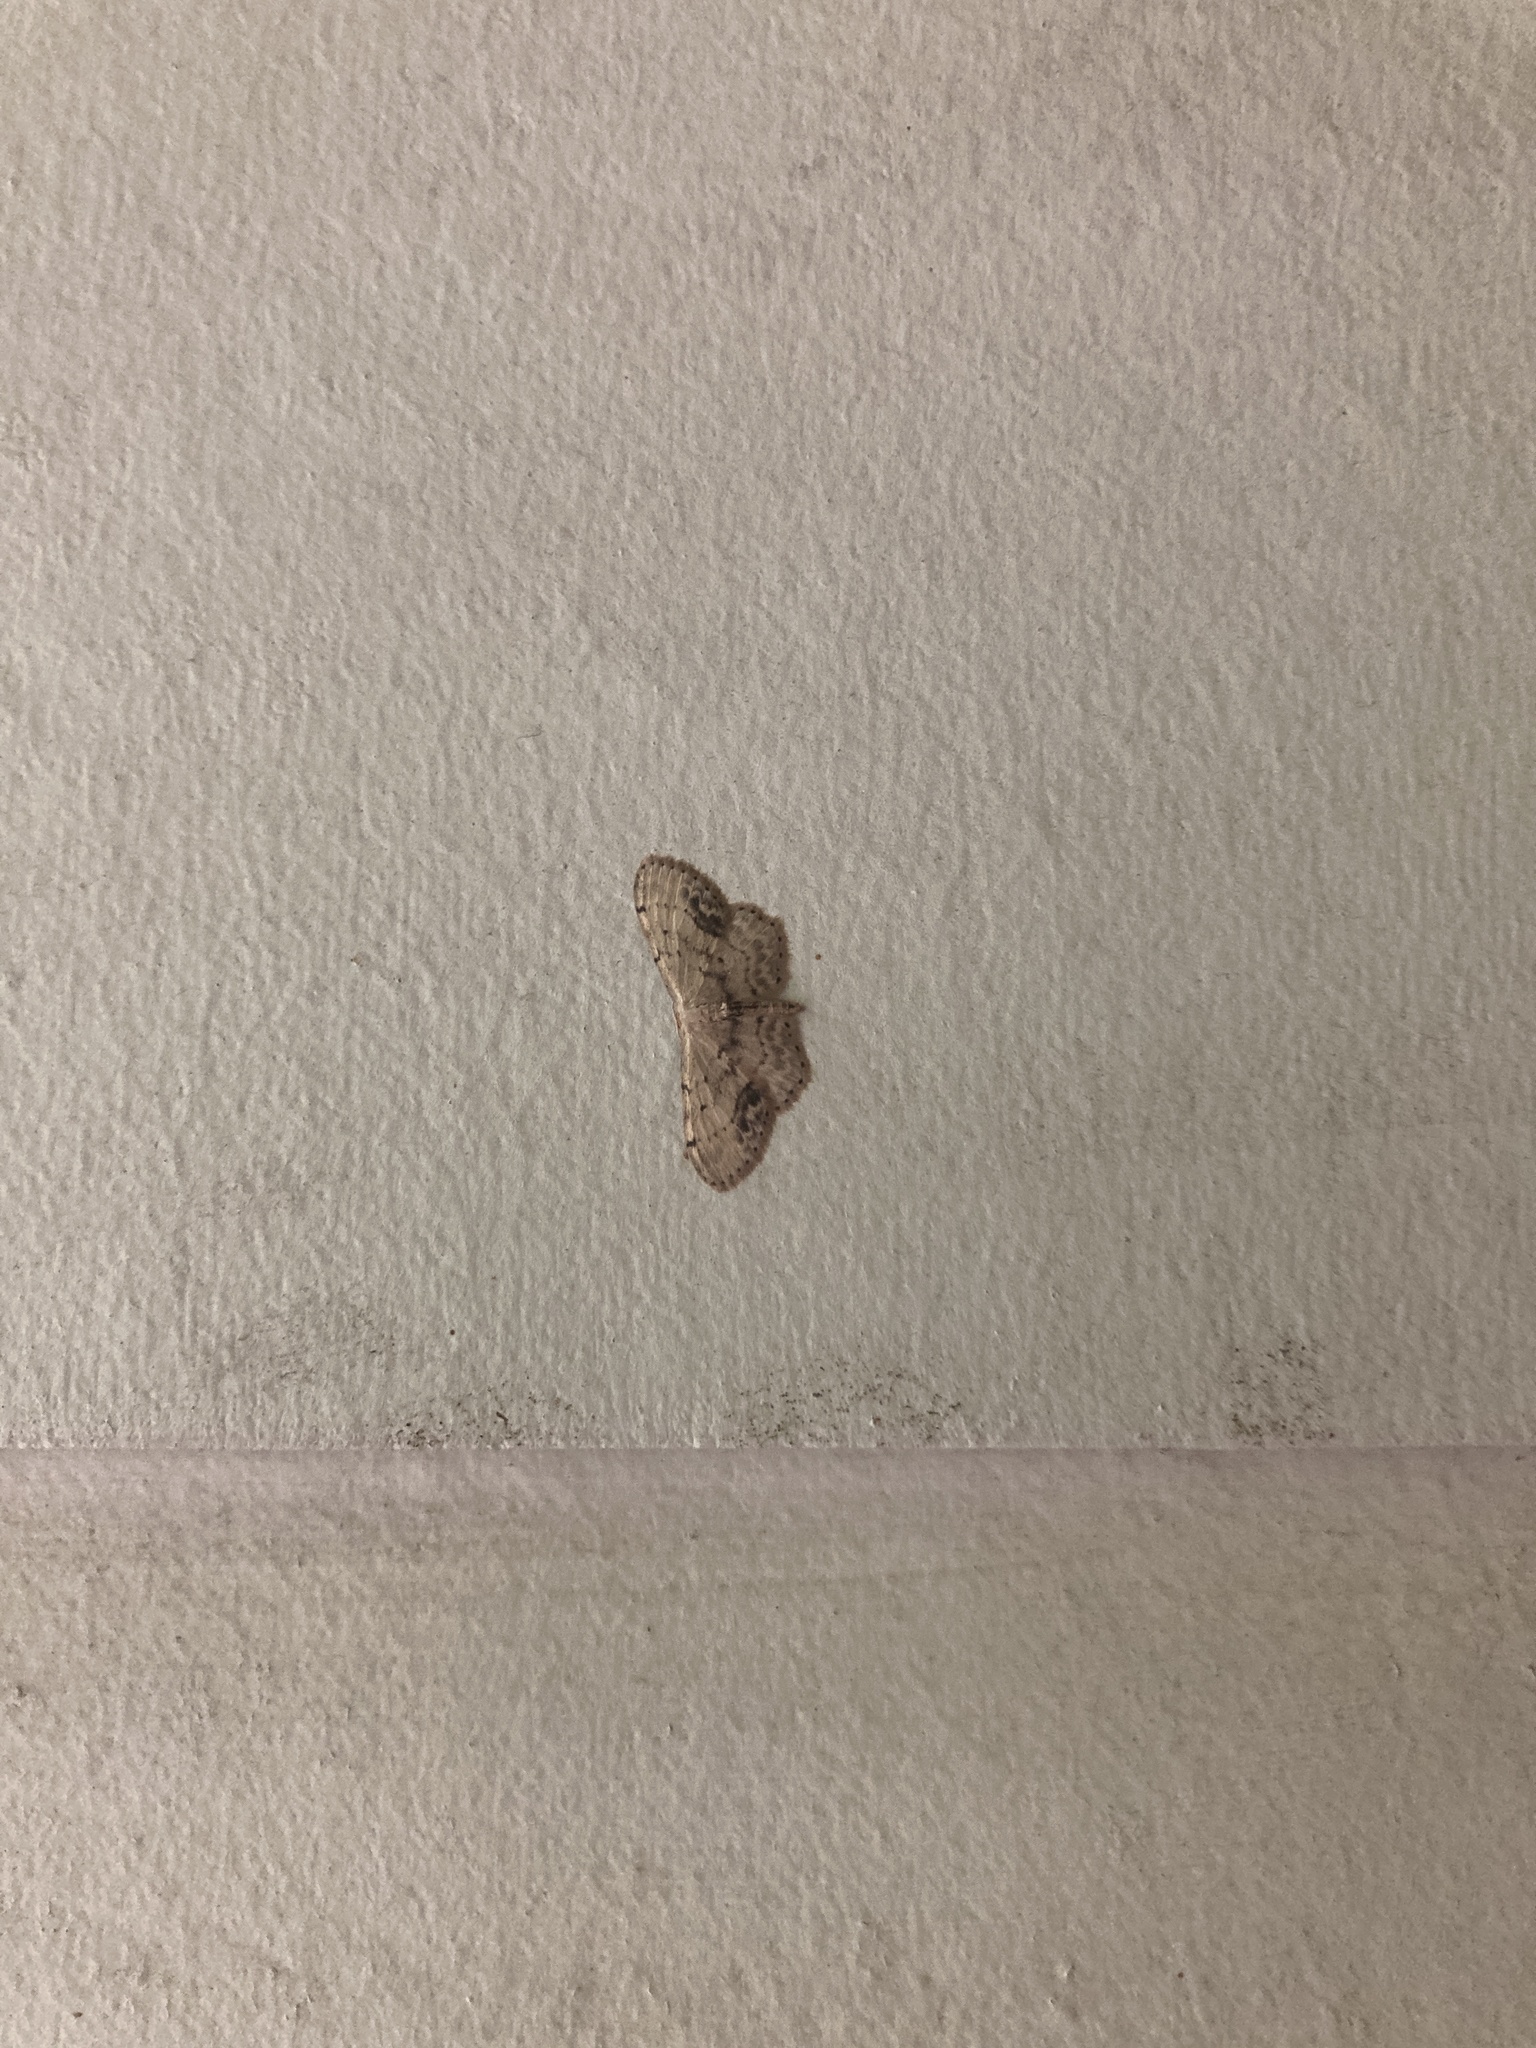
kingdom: Animalia
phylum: Arthropoda
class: Insecta
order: Lepidoptera
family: Geometridae
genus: Idaea
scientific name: Idaea dimidiata
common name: Single-dotted wave
